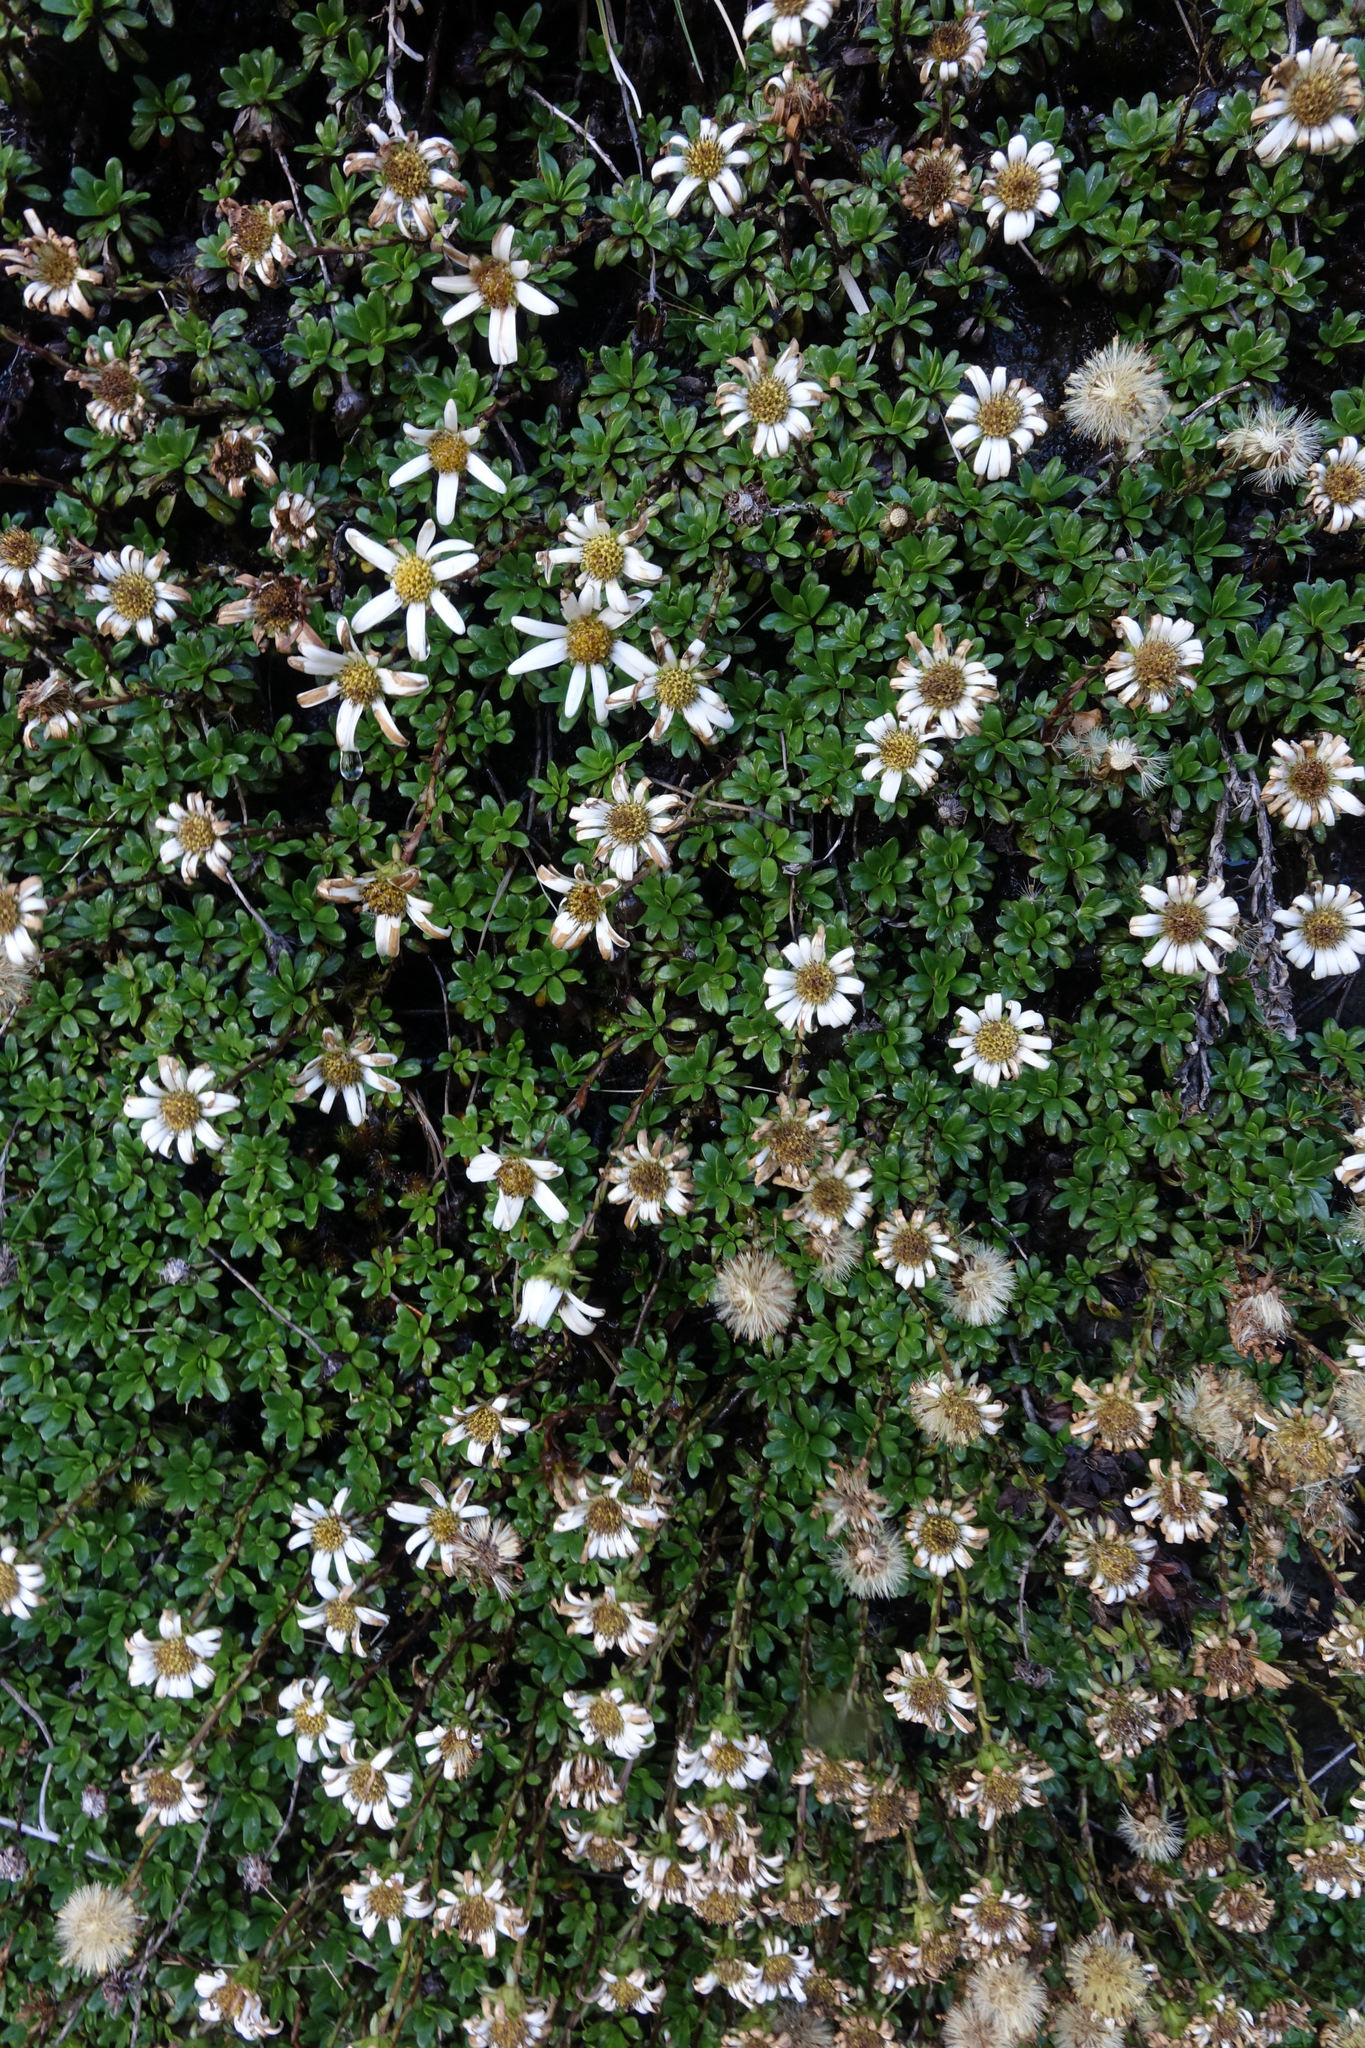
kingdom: Plantae
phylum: Tracheophyta
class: Magnoliopsida
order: Asterales
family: Asteraceae
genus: Celmisia
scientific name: Celmisia bellidioides
